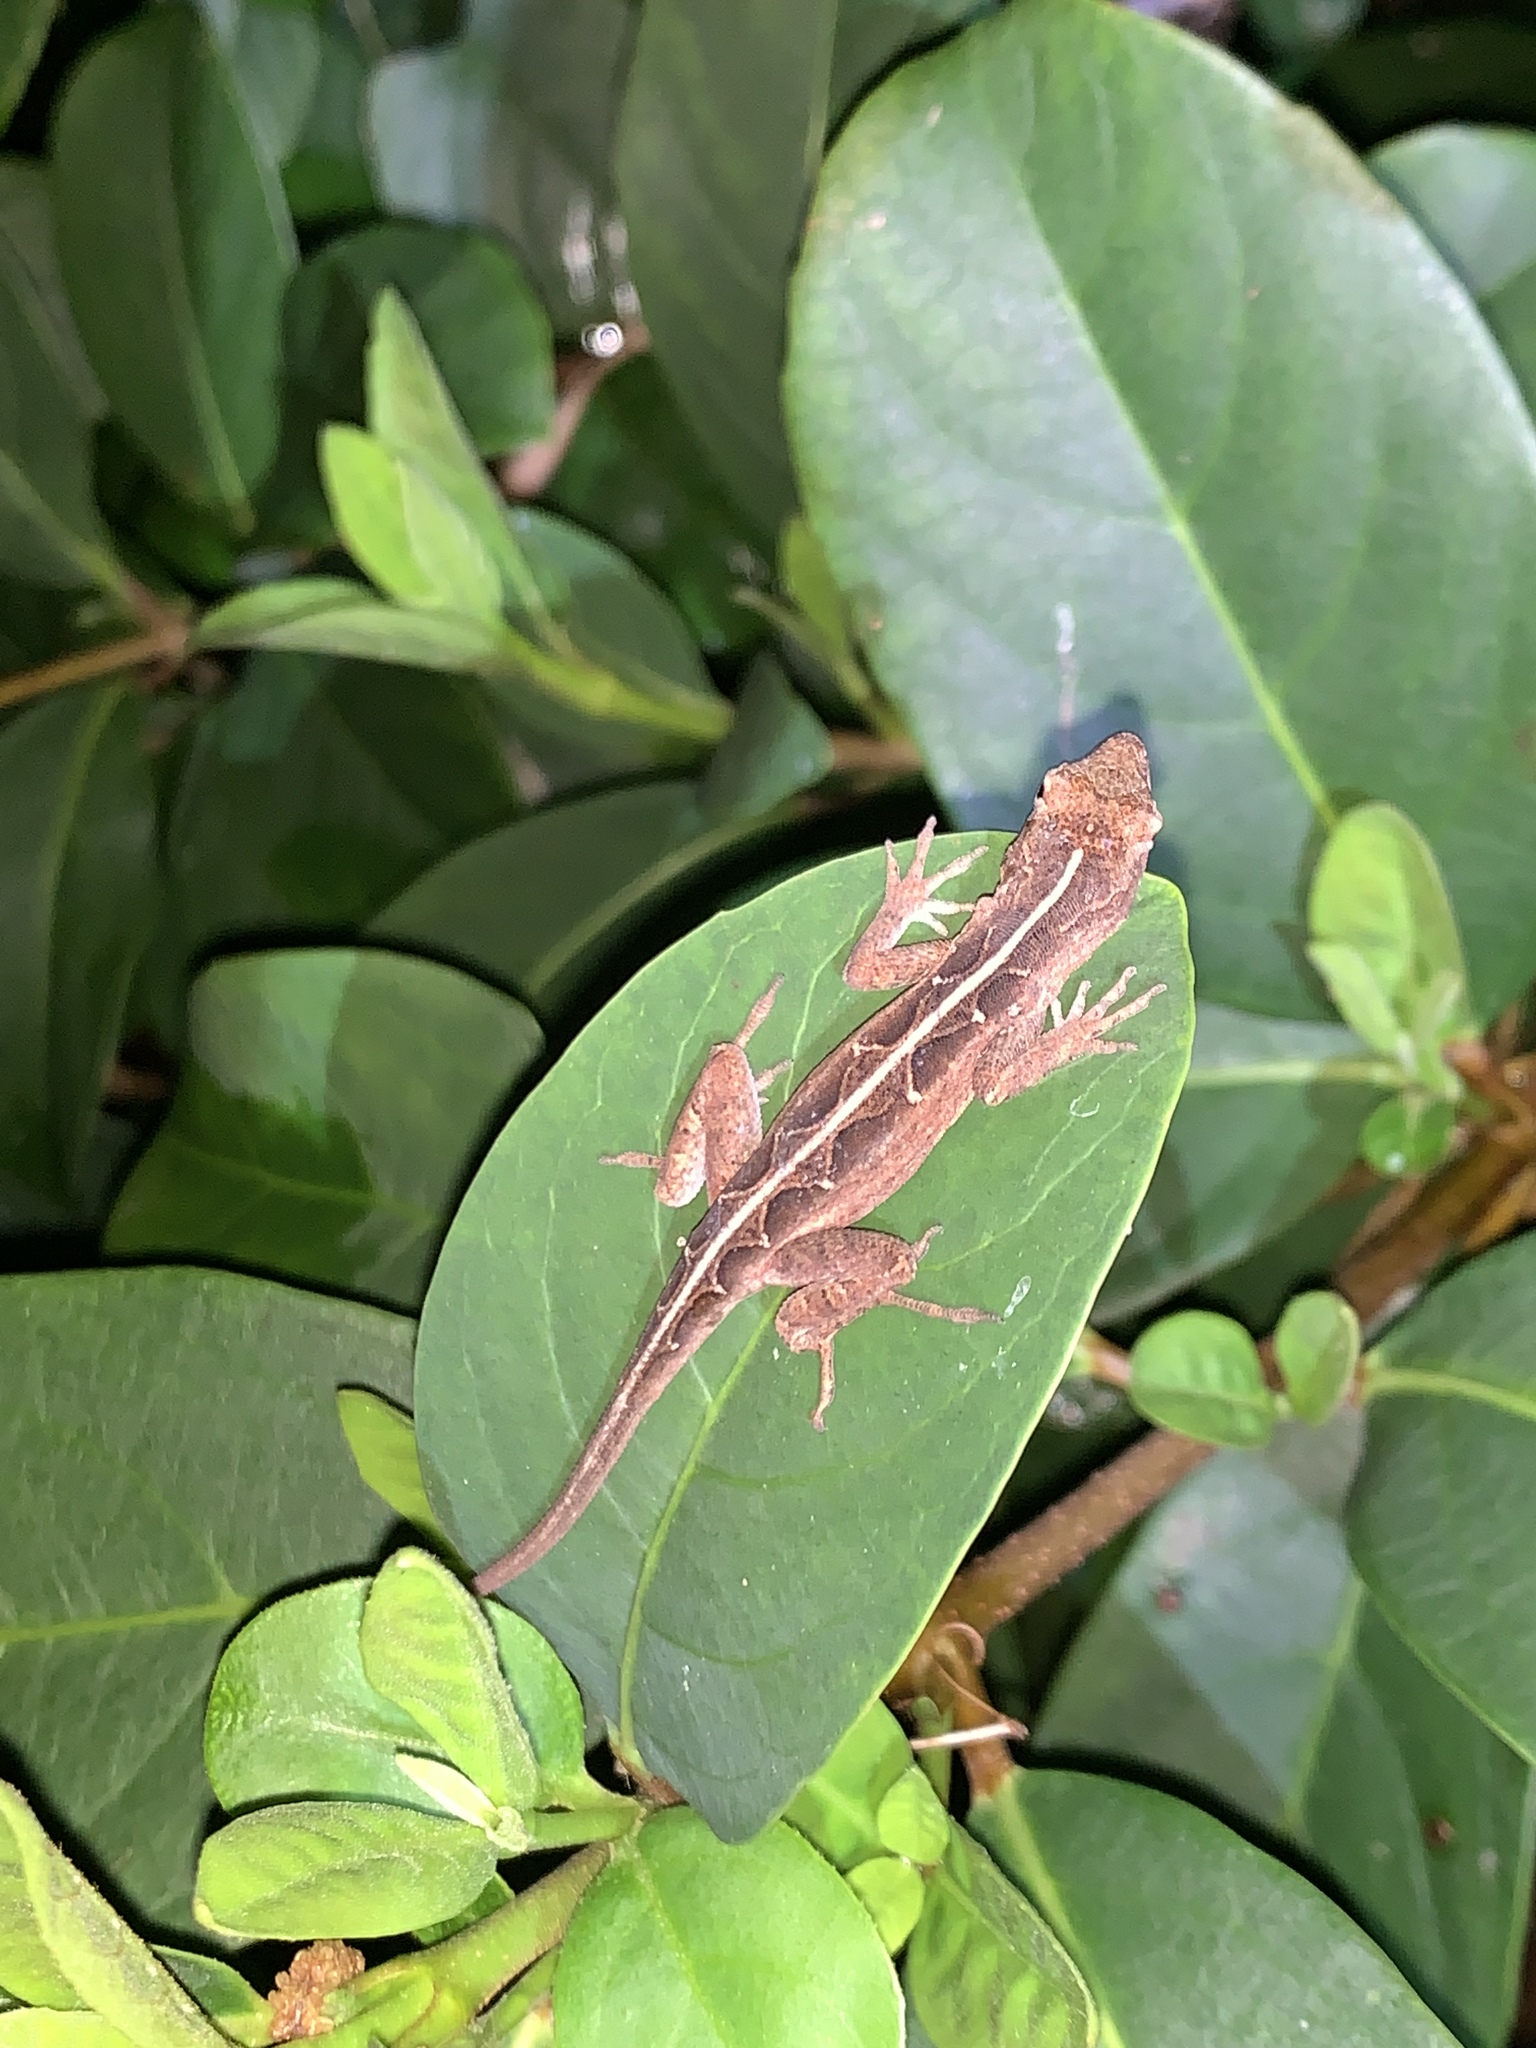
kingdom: Animalia
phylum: Chordata
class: Squamata
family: Dactyloidae
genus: Anolis
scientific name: Anolis sagrei
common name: Brown anole
